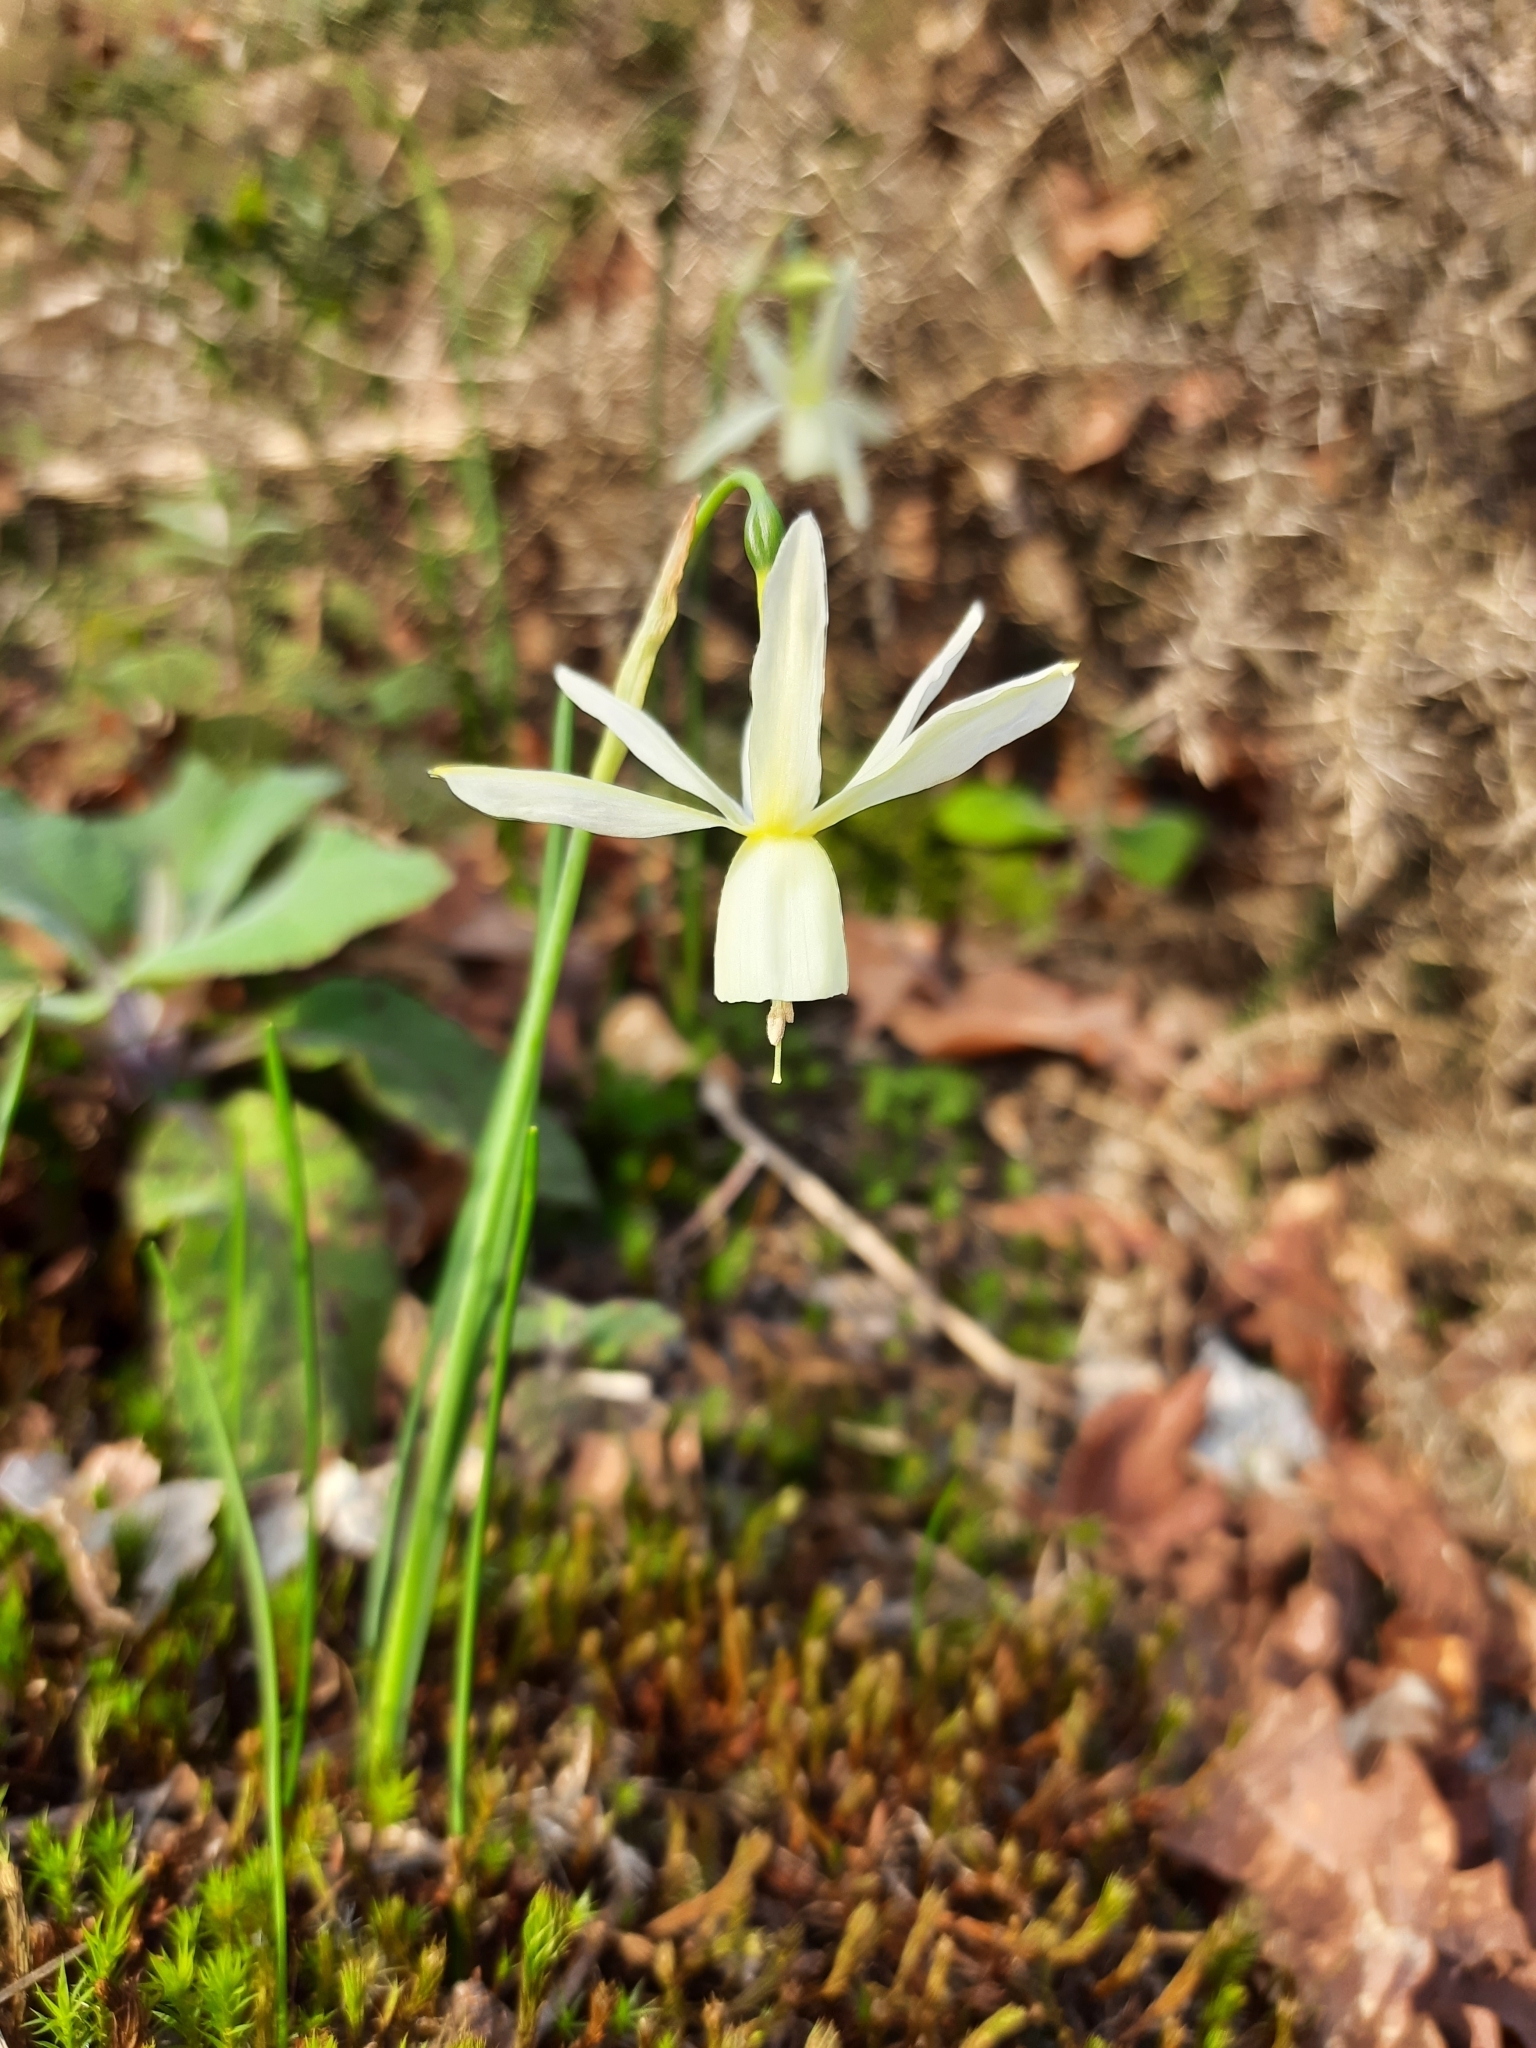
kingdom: Plantae
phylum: Tracheophyta
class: Liliopsida
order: Asparagales
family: Amaryllidaceae
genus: Narcissus
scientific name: Narcissus triandrus
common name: Angel's-tears
